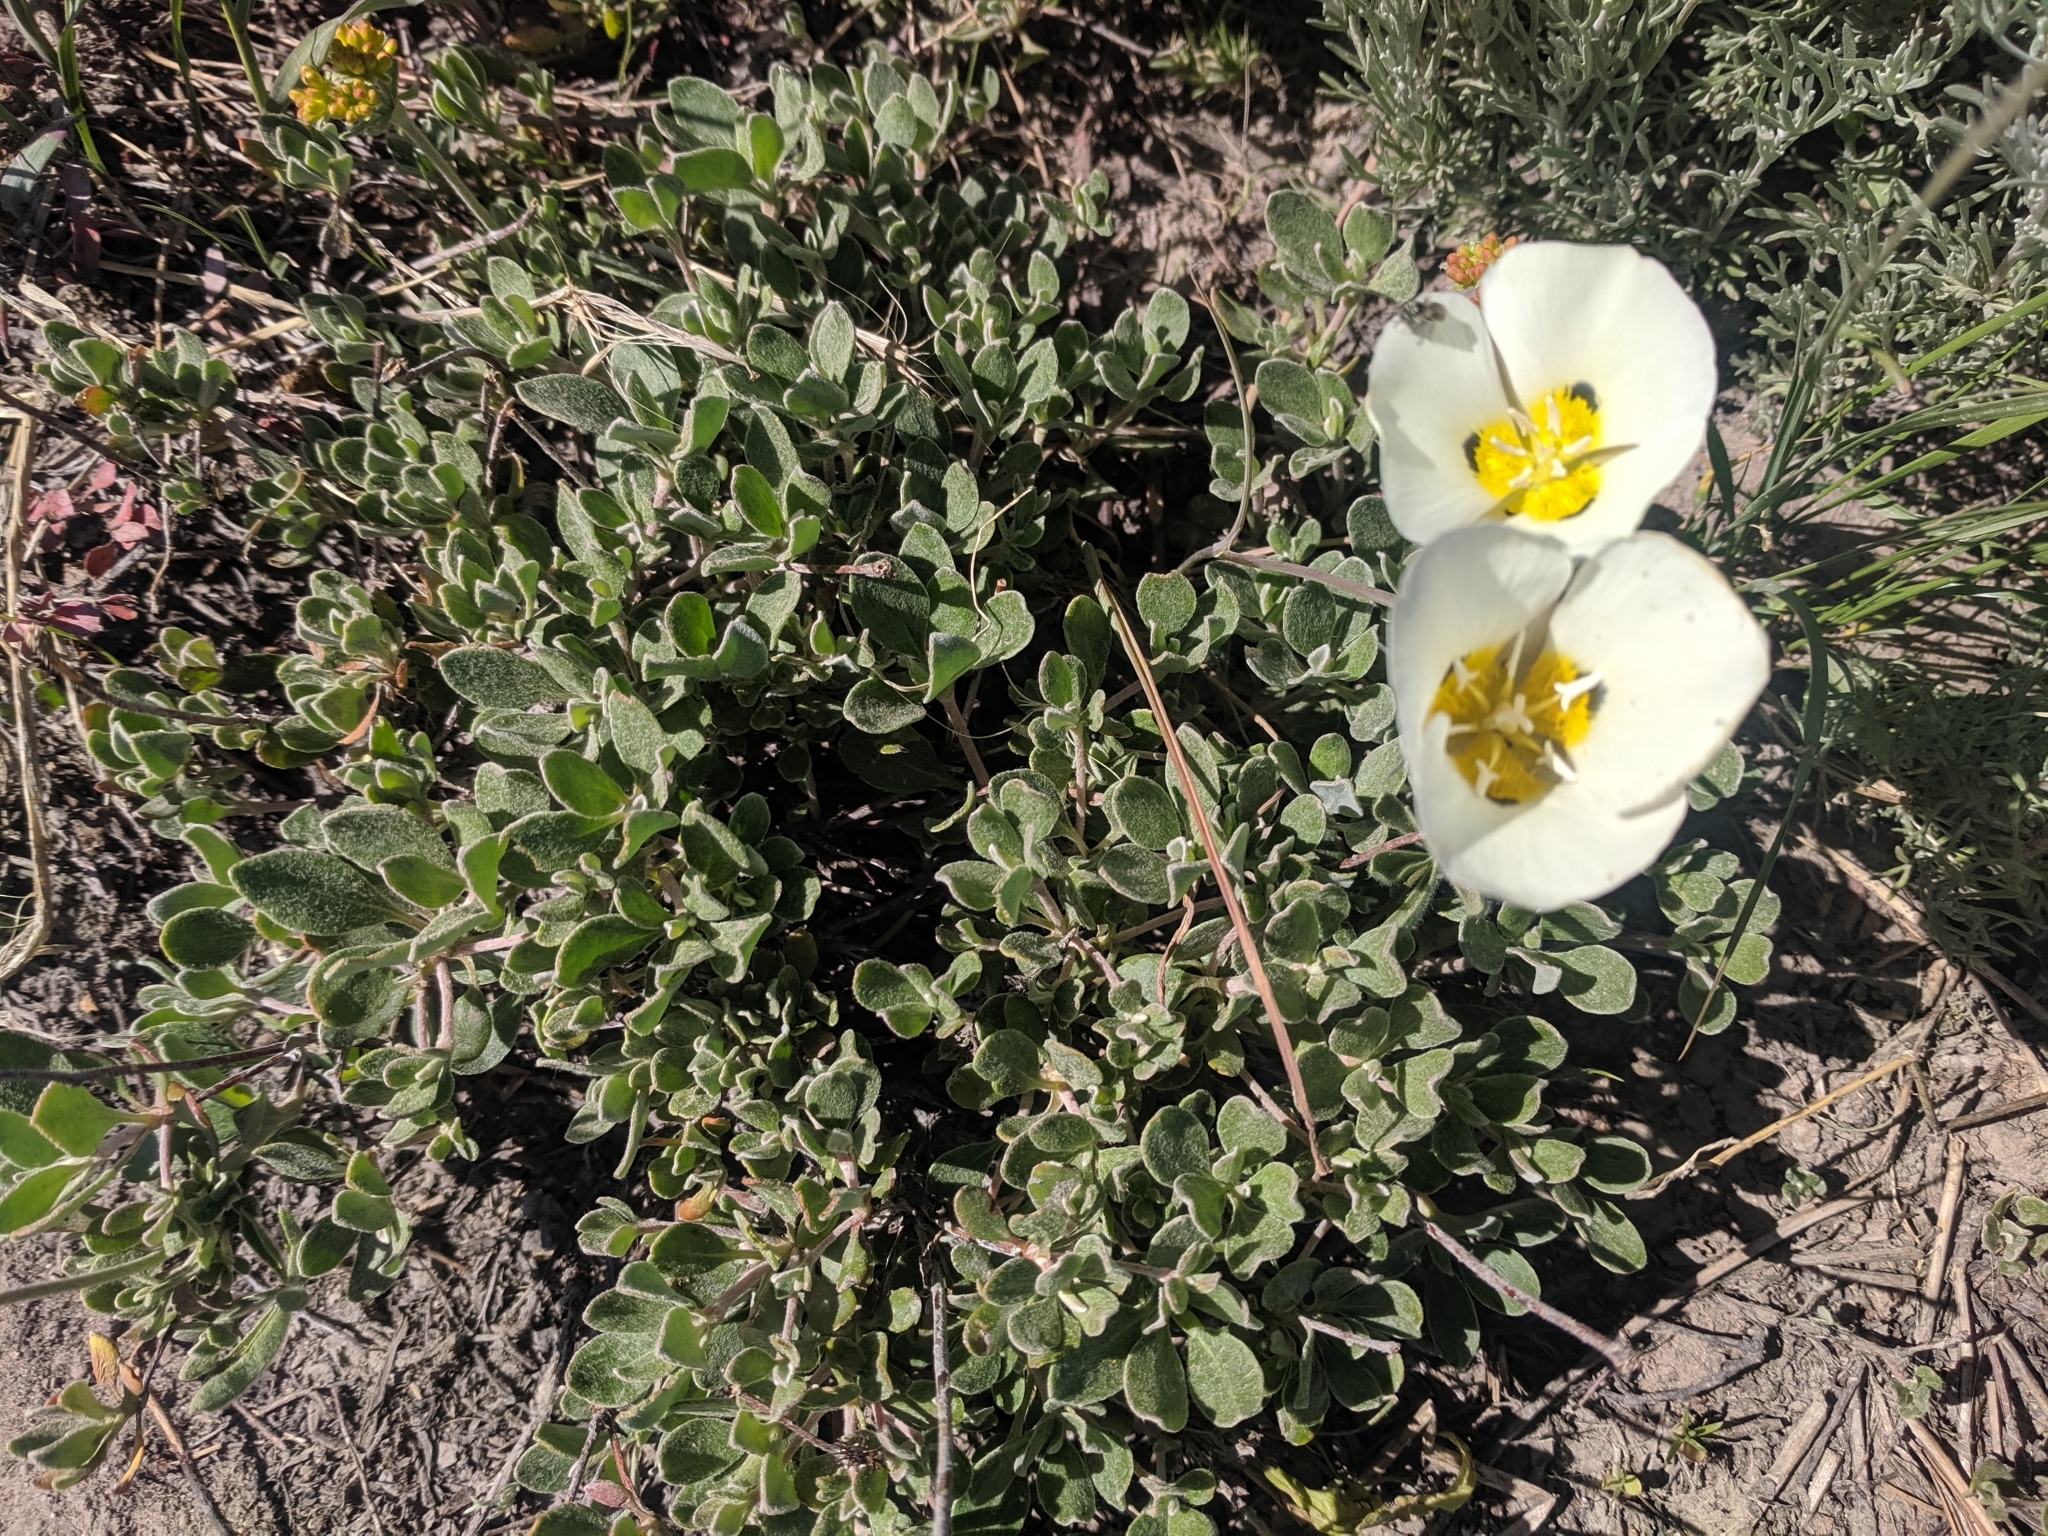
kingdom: Plantae
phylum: Tracheophyta
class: Liliopsida
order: Liliales
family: Liliaceae
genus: Calochortus
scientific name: Calochortus leichtlinii
